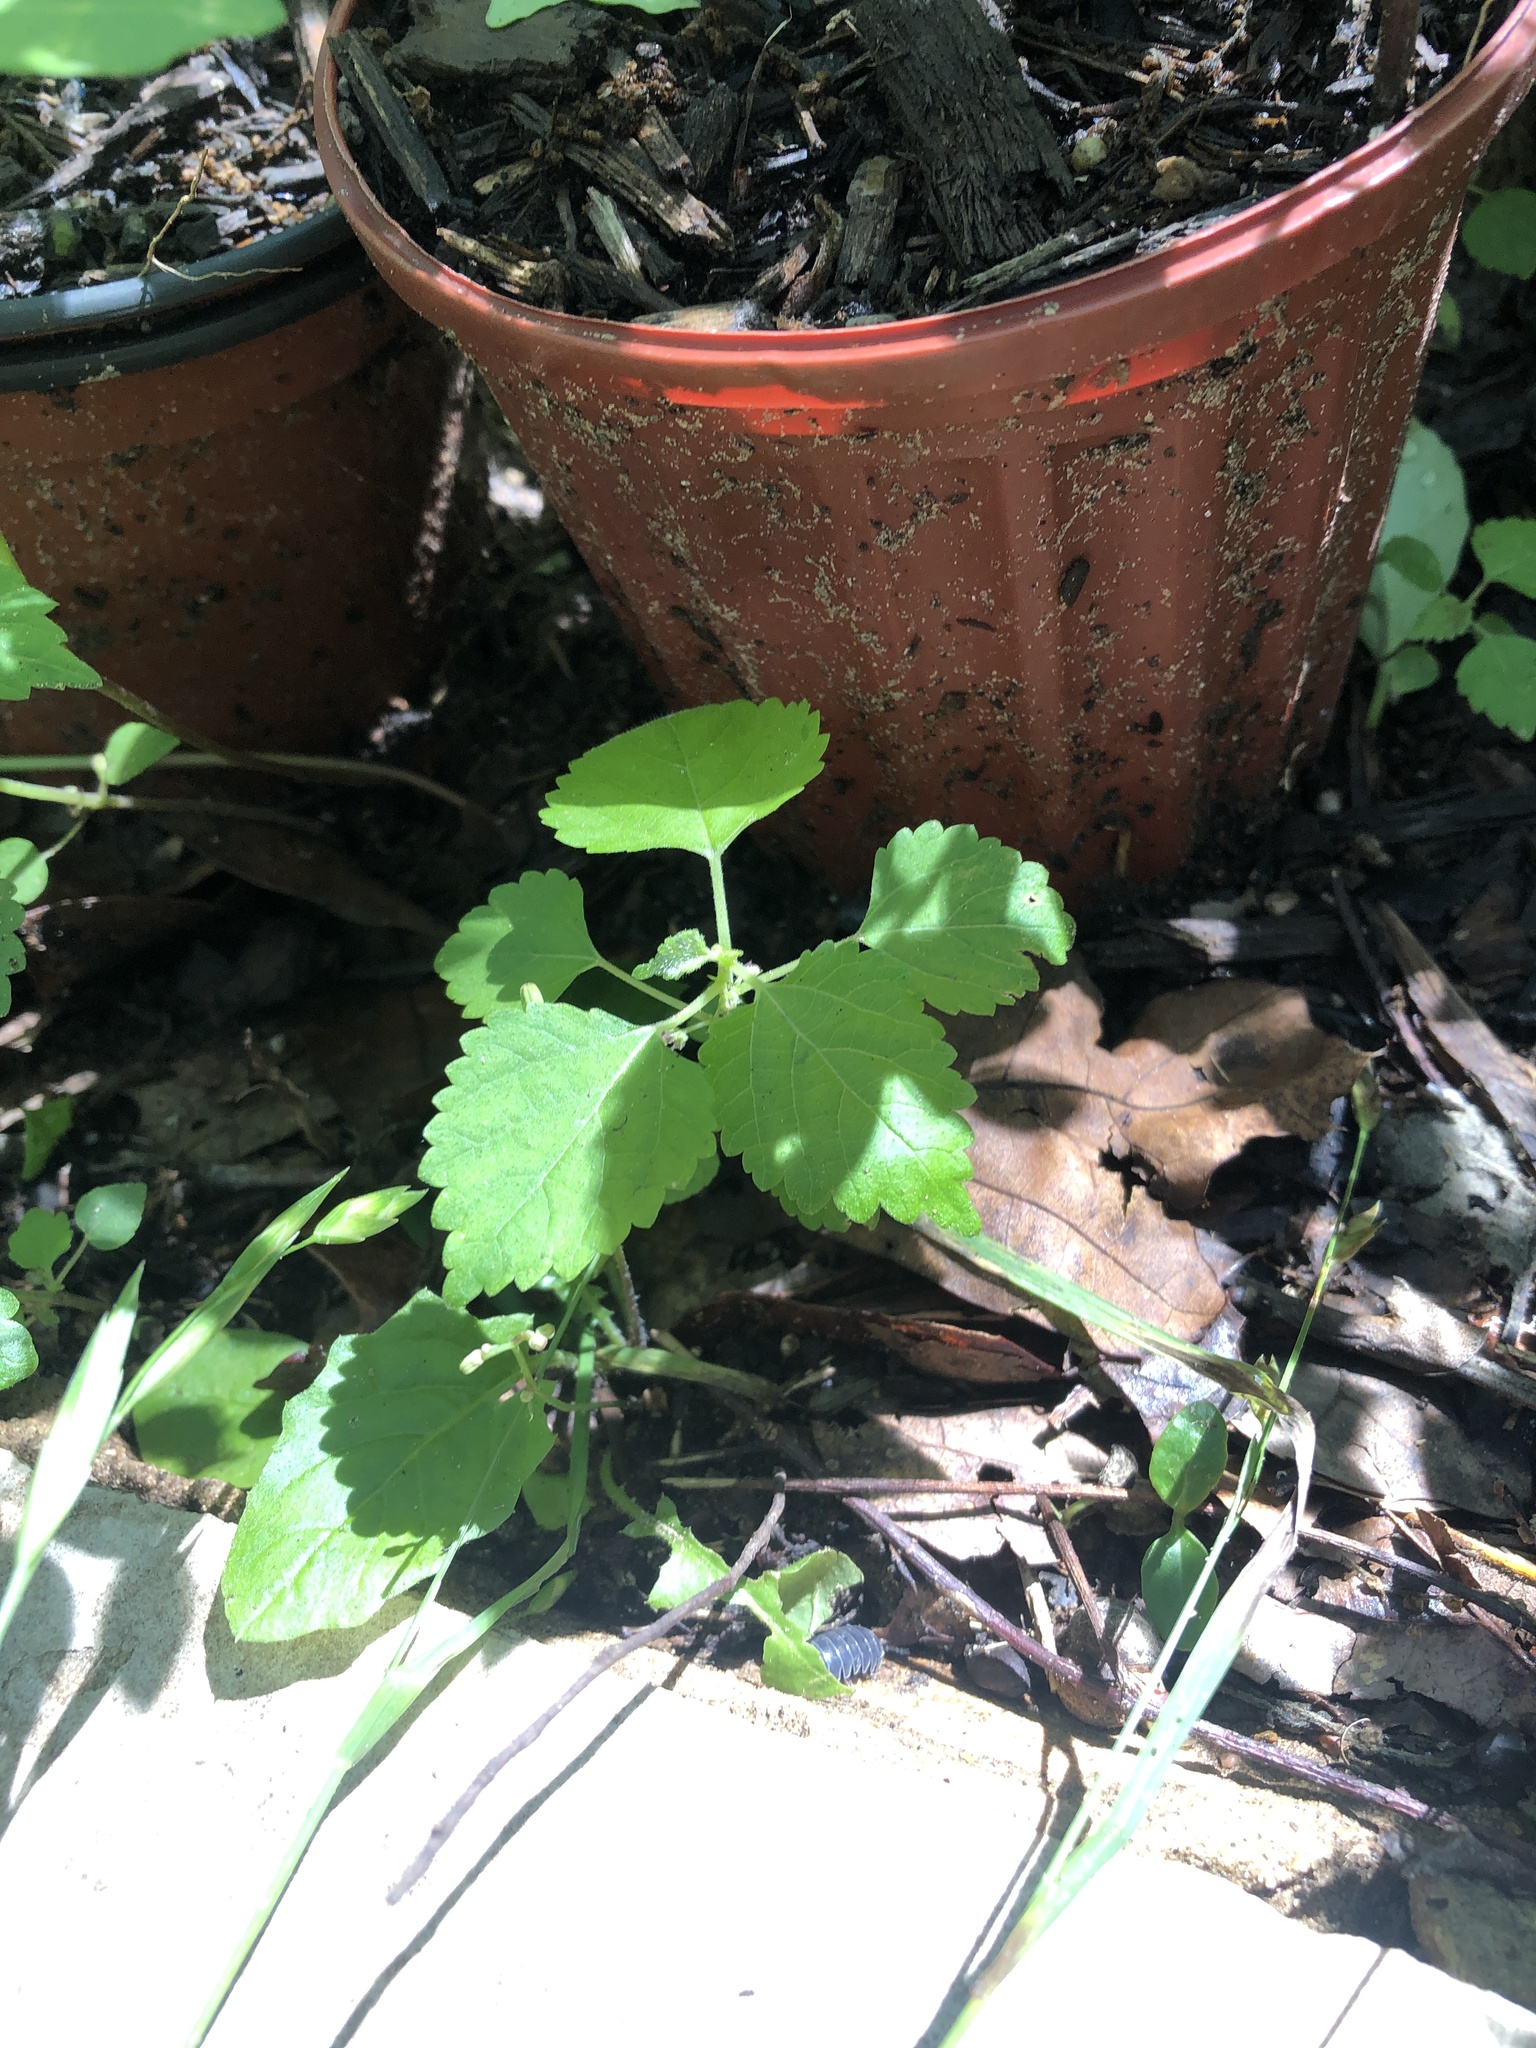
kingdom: Plantae
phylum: Tracheophyta
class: Magnoliopsida
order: Rosales
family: Moraceae
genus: Fatoua
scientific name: Fatoua villosa
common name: Hairy crabweed
